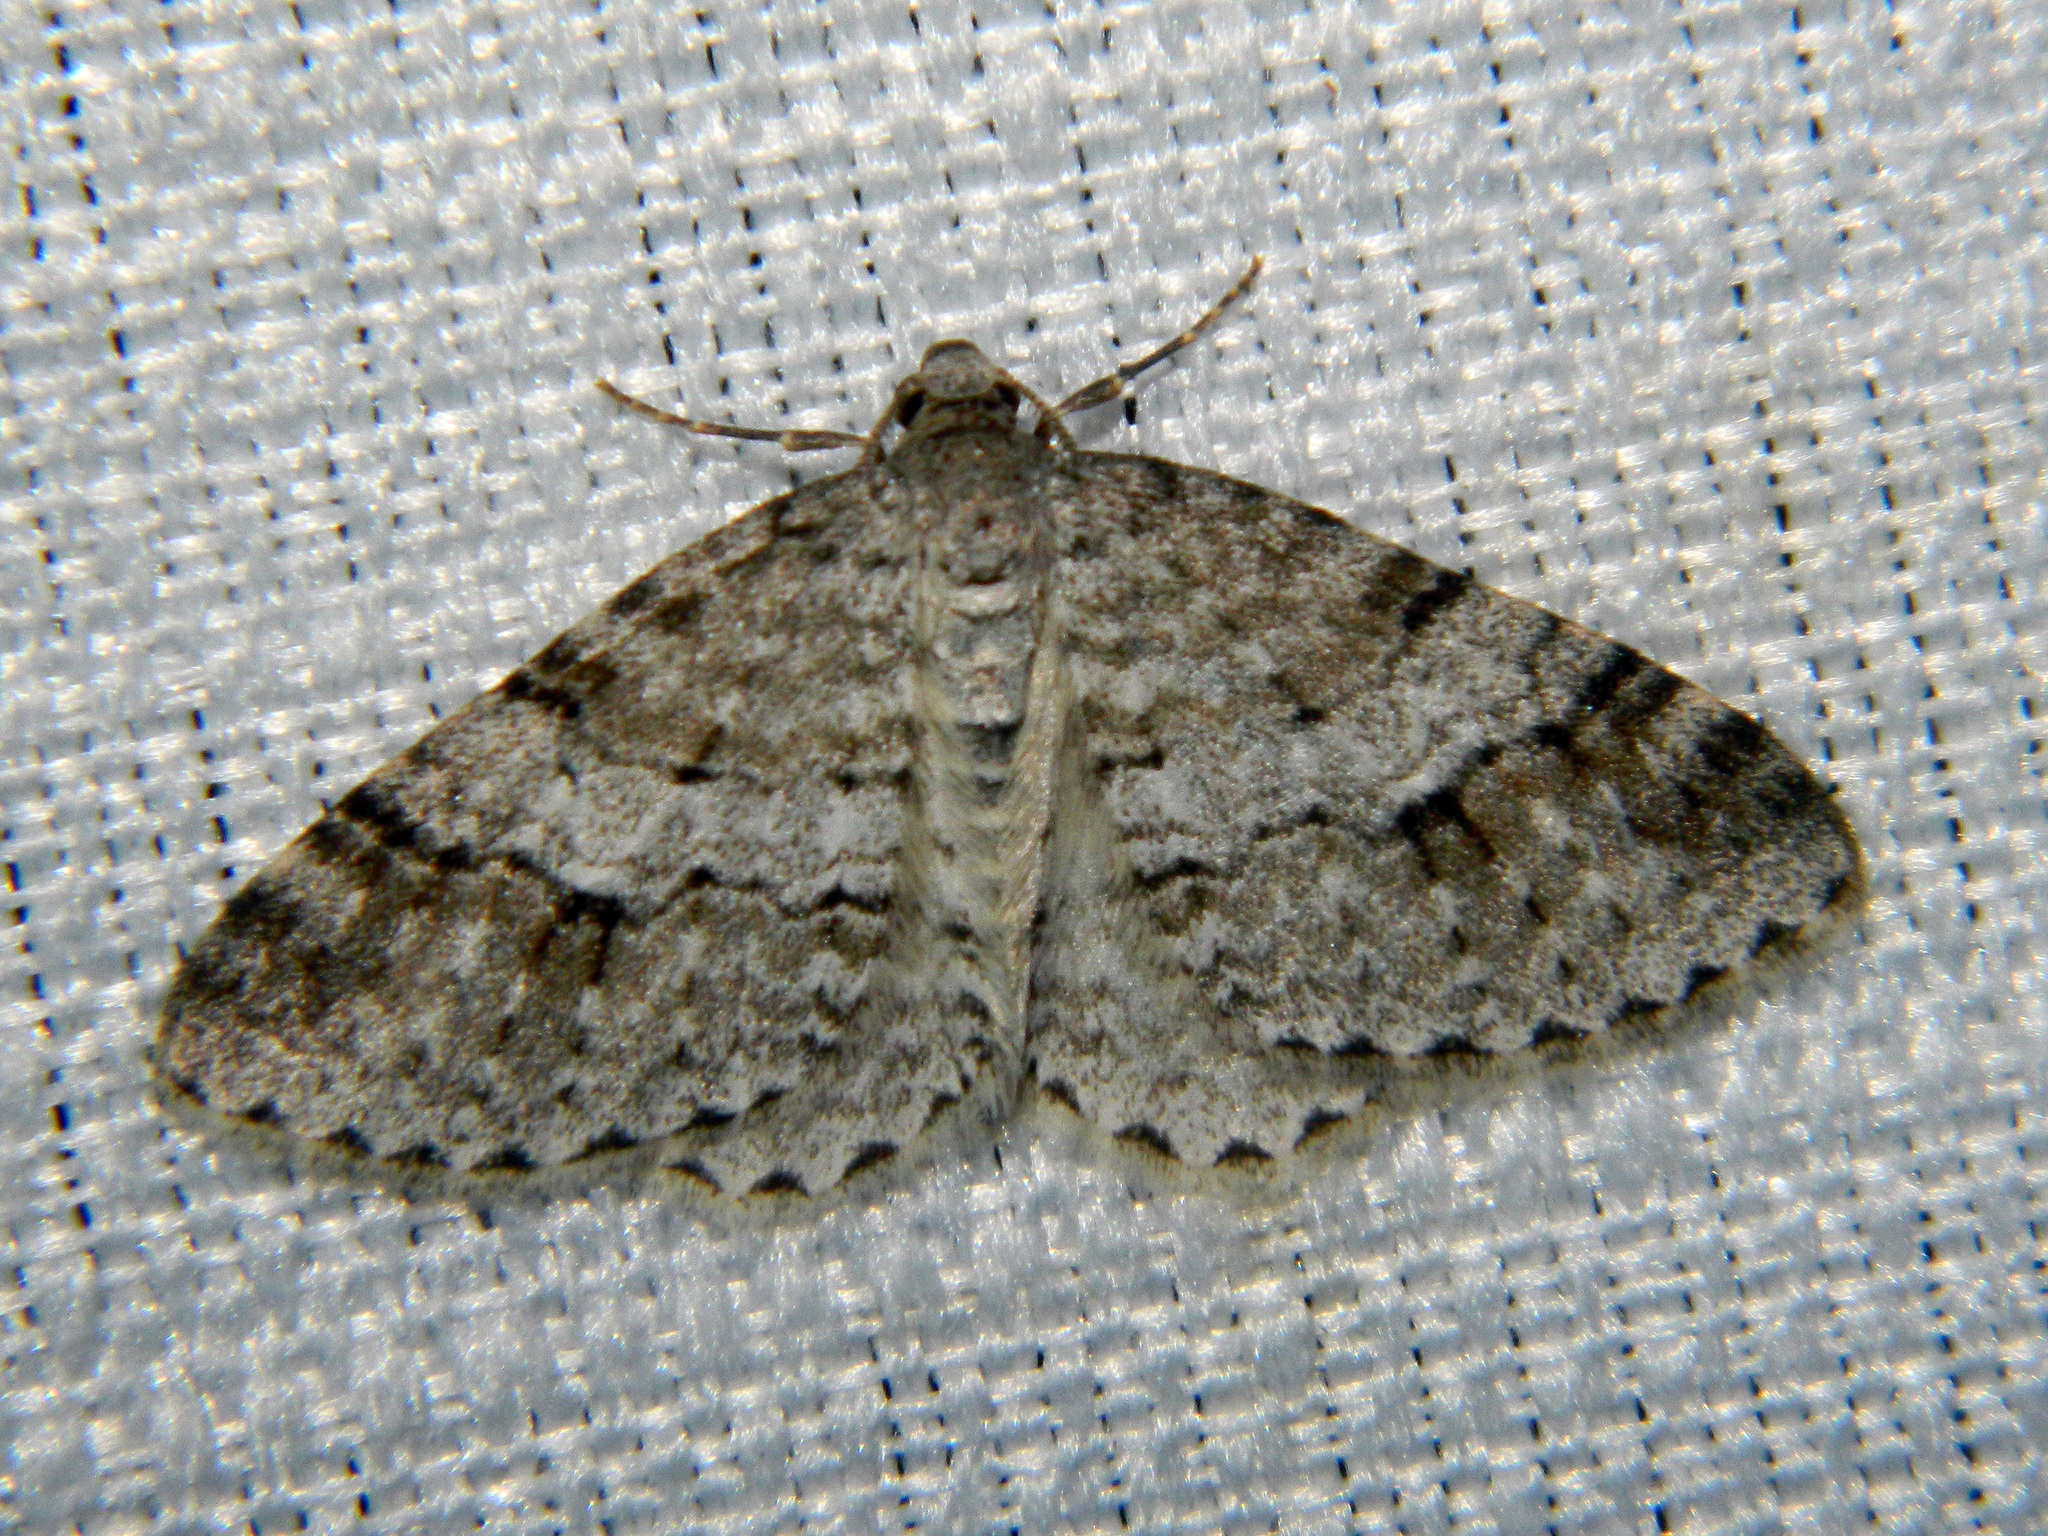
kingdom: Animalia
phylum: Arthropoda
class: Insecta
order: Lepidoptera
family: Geometridae
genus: Venusia
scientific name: Venusia cambrica
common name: Welsh wave
